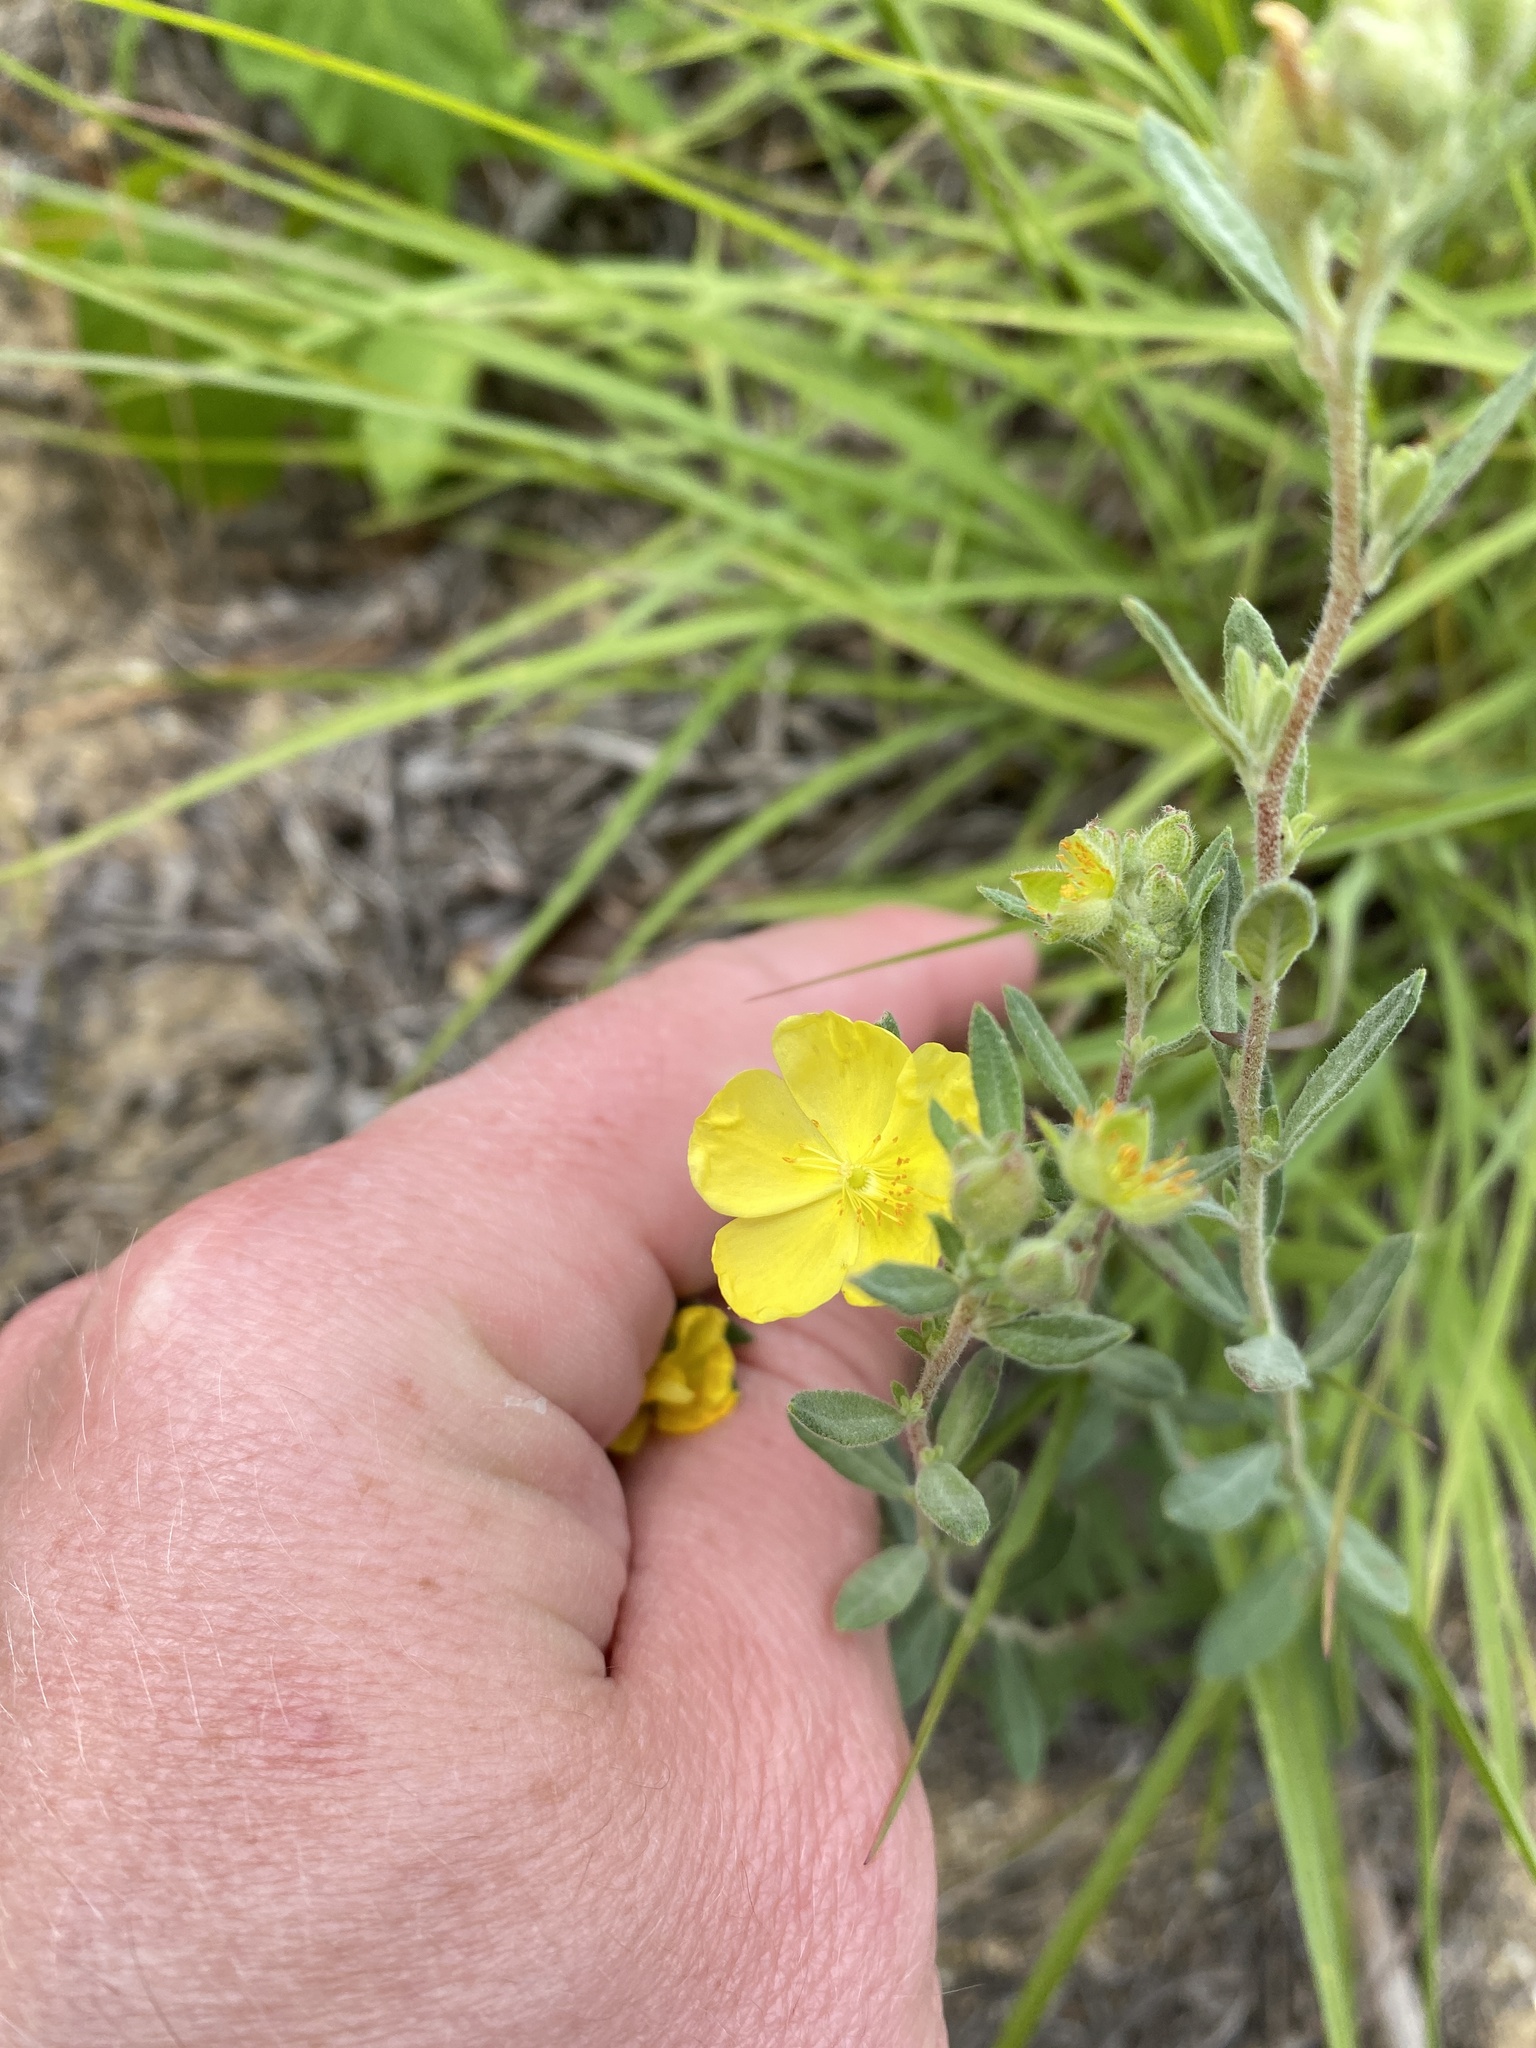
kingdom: Plantae
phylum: Tracheophyta
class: Magnoliopsida
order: Malvales
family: Cistaceae
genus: Crocanthemum
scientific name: Crocanthemum bicknellii
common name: Hoary frostweed
